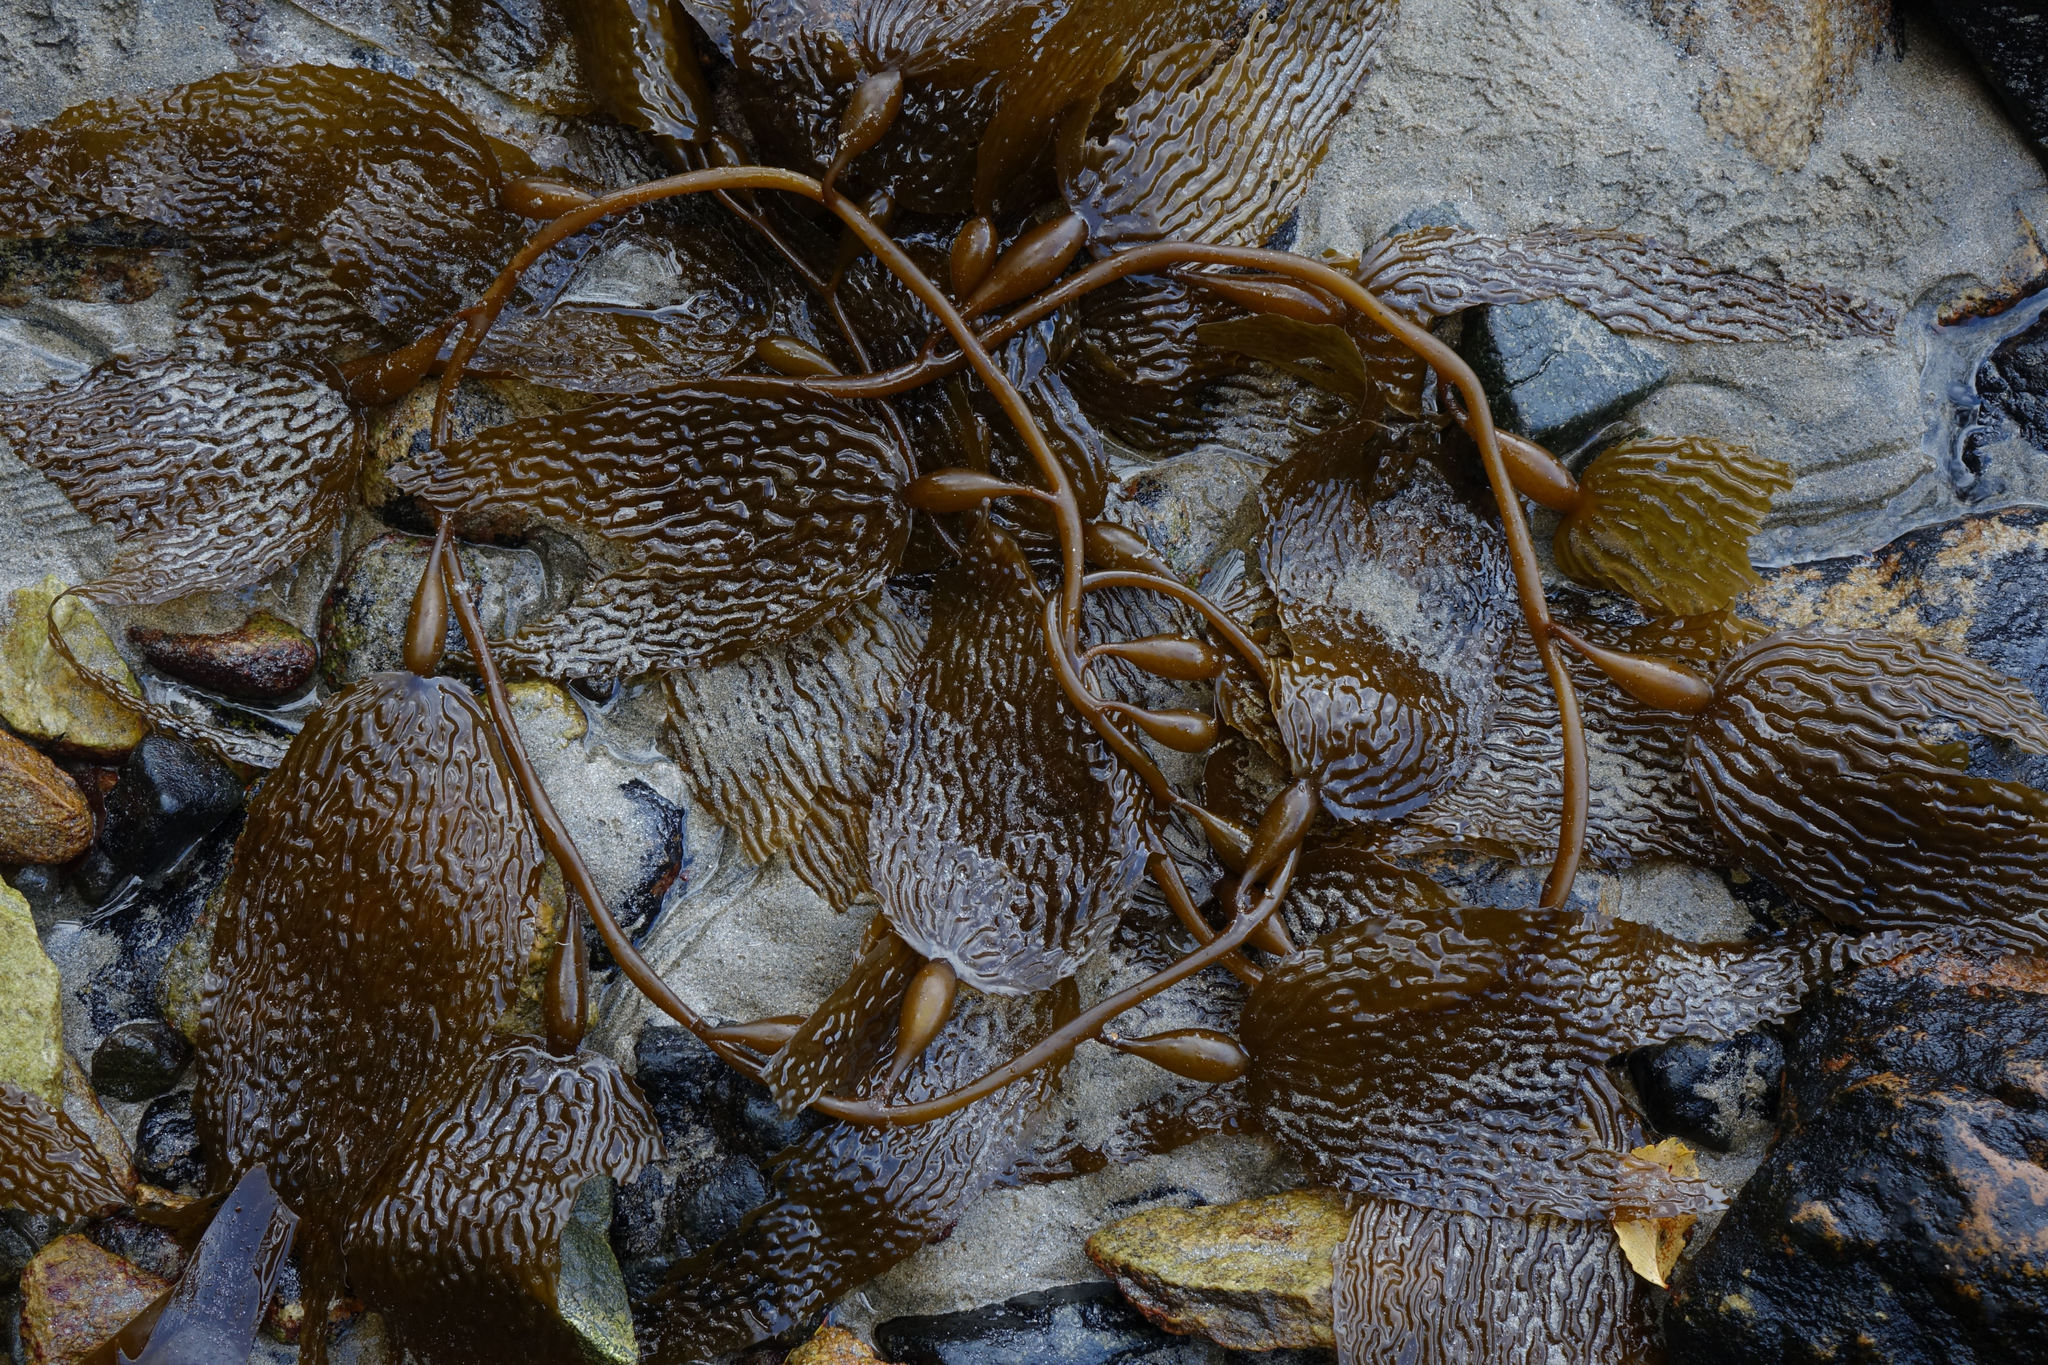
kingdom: Chromista
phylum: Ochrophyta
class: Phaeophyceae
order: Laminariales
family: Laminariaceae
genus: Macrocystis
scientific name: Macrocystis pyrifera
